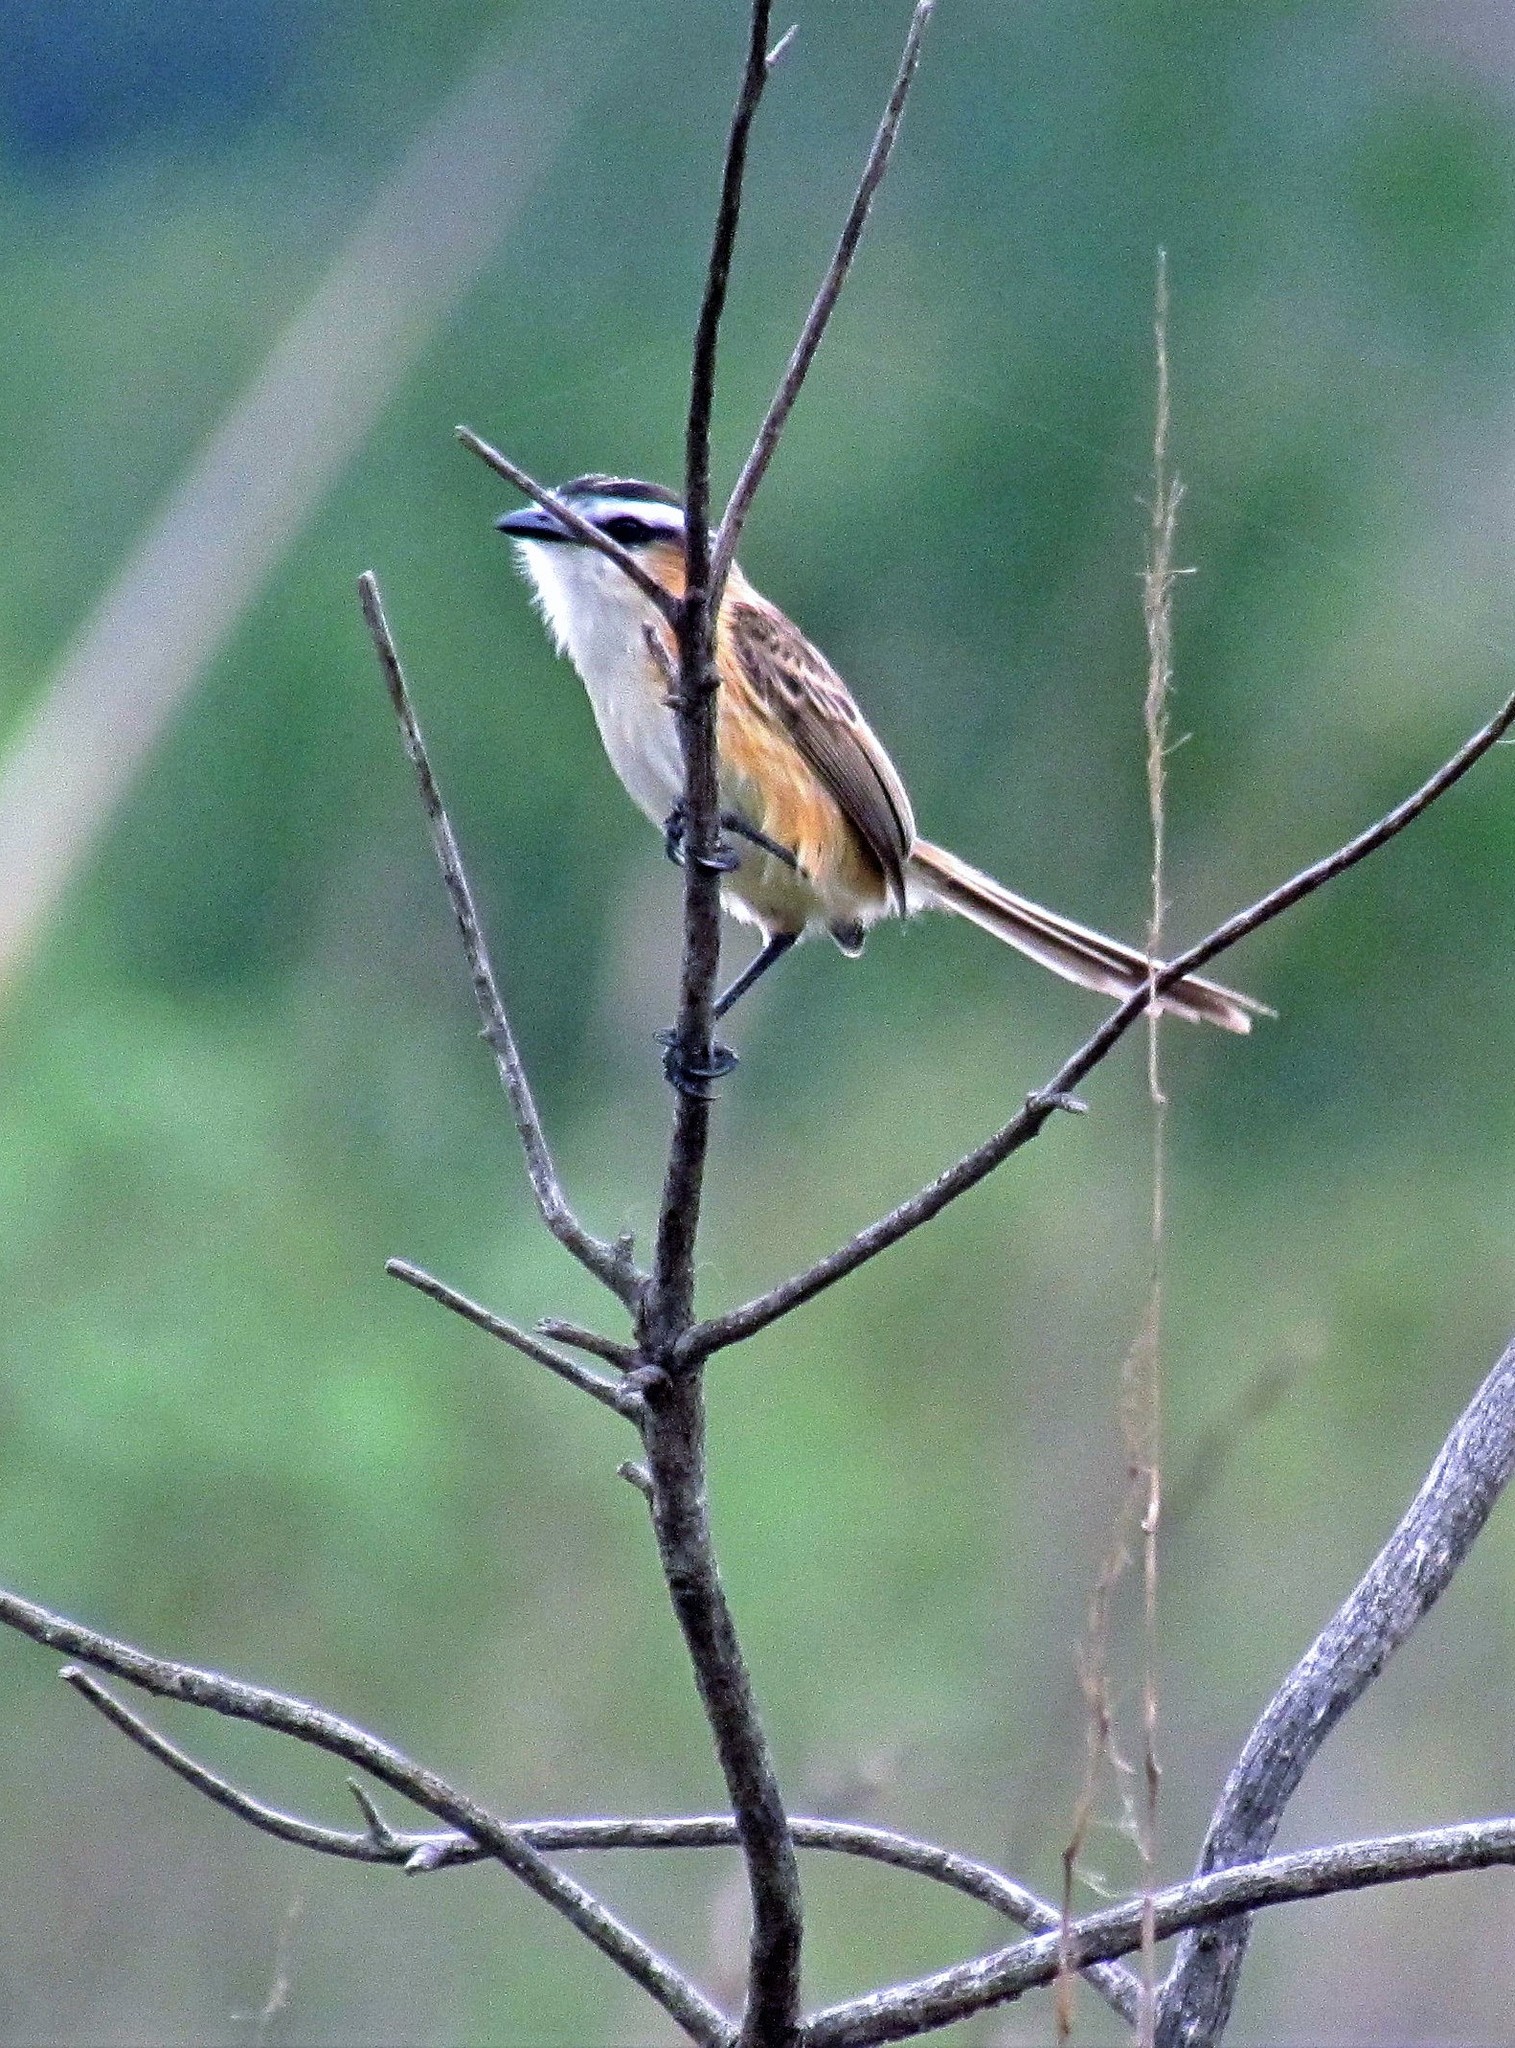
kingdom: Animalia
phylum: Chordata
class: Aves
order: Passeriformes
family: Tyrannidae
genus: Culicivora
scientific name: Culicivora caudacuta
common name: Sharp-tailed grass tyrant
